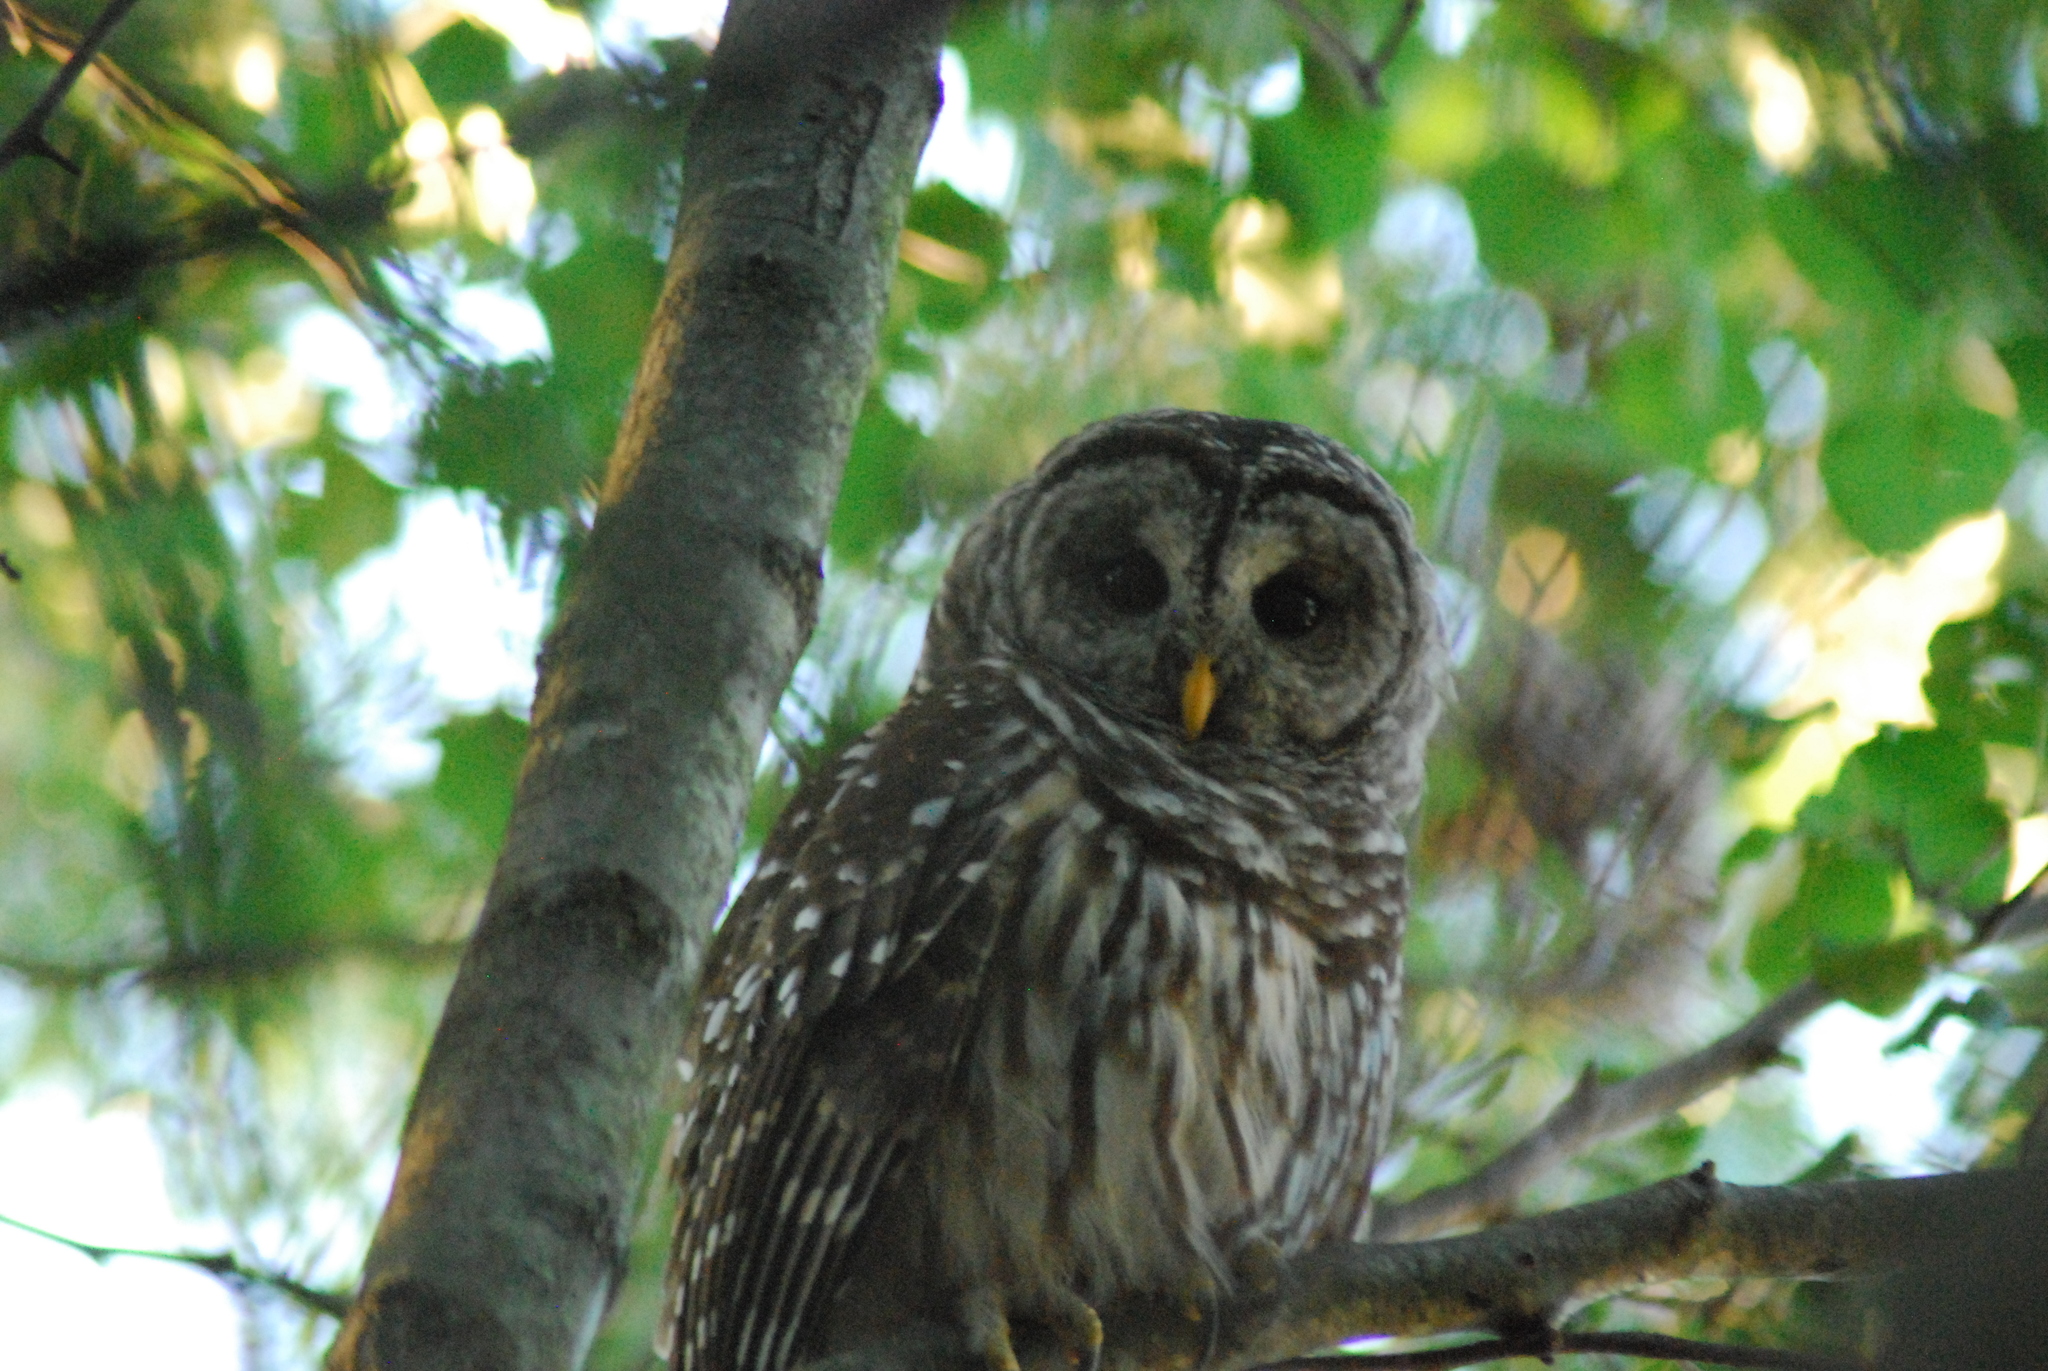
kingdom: Animalia
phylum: Chordata
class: Aves
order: Strigiformes
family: Strigidae
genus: Strix
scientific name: Strix varia
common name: Barred owl
